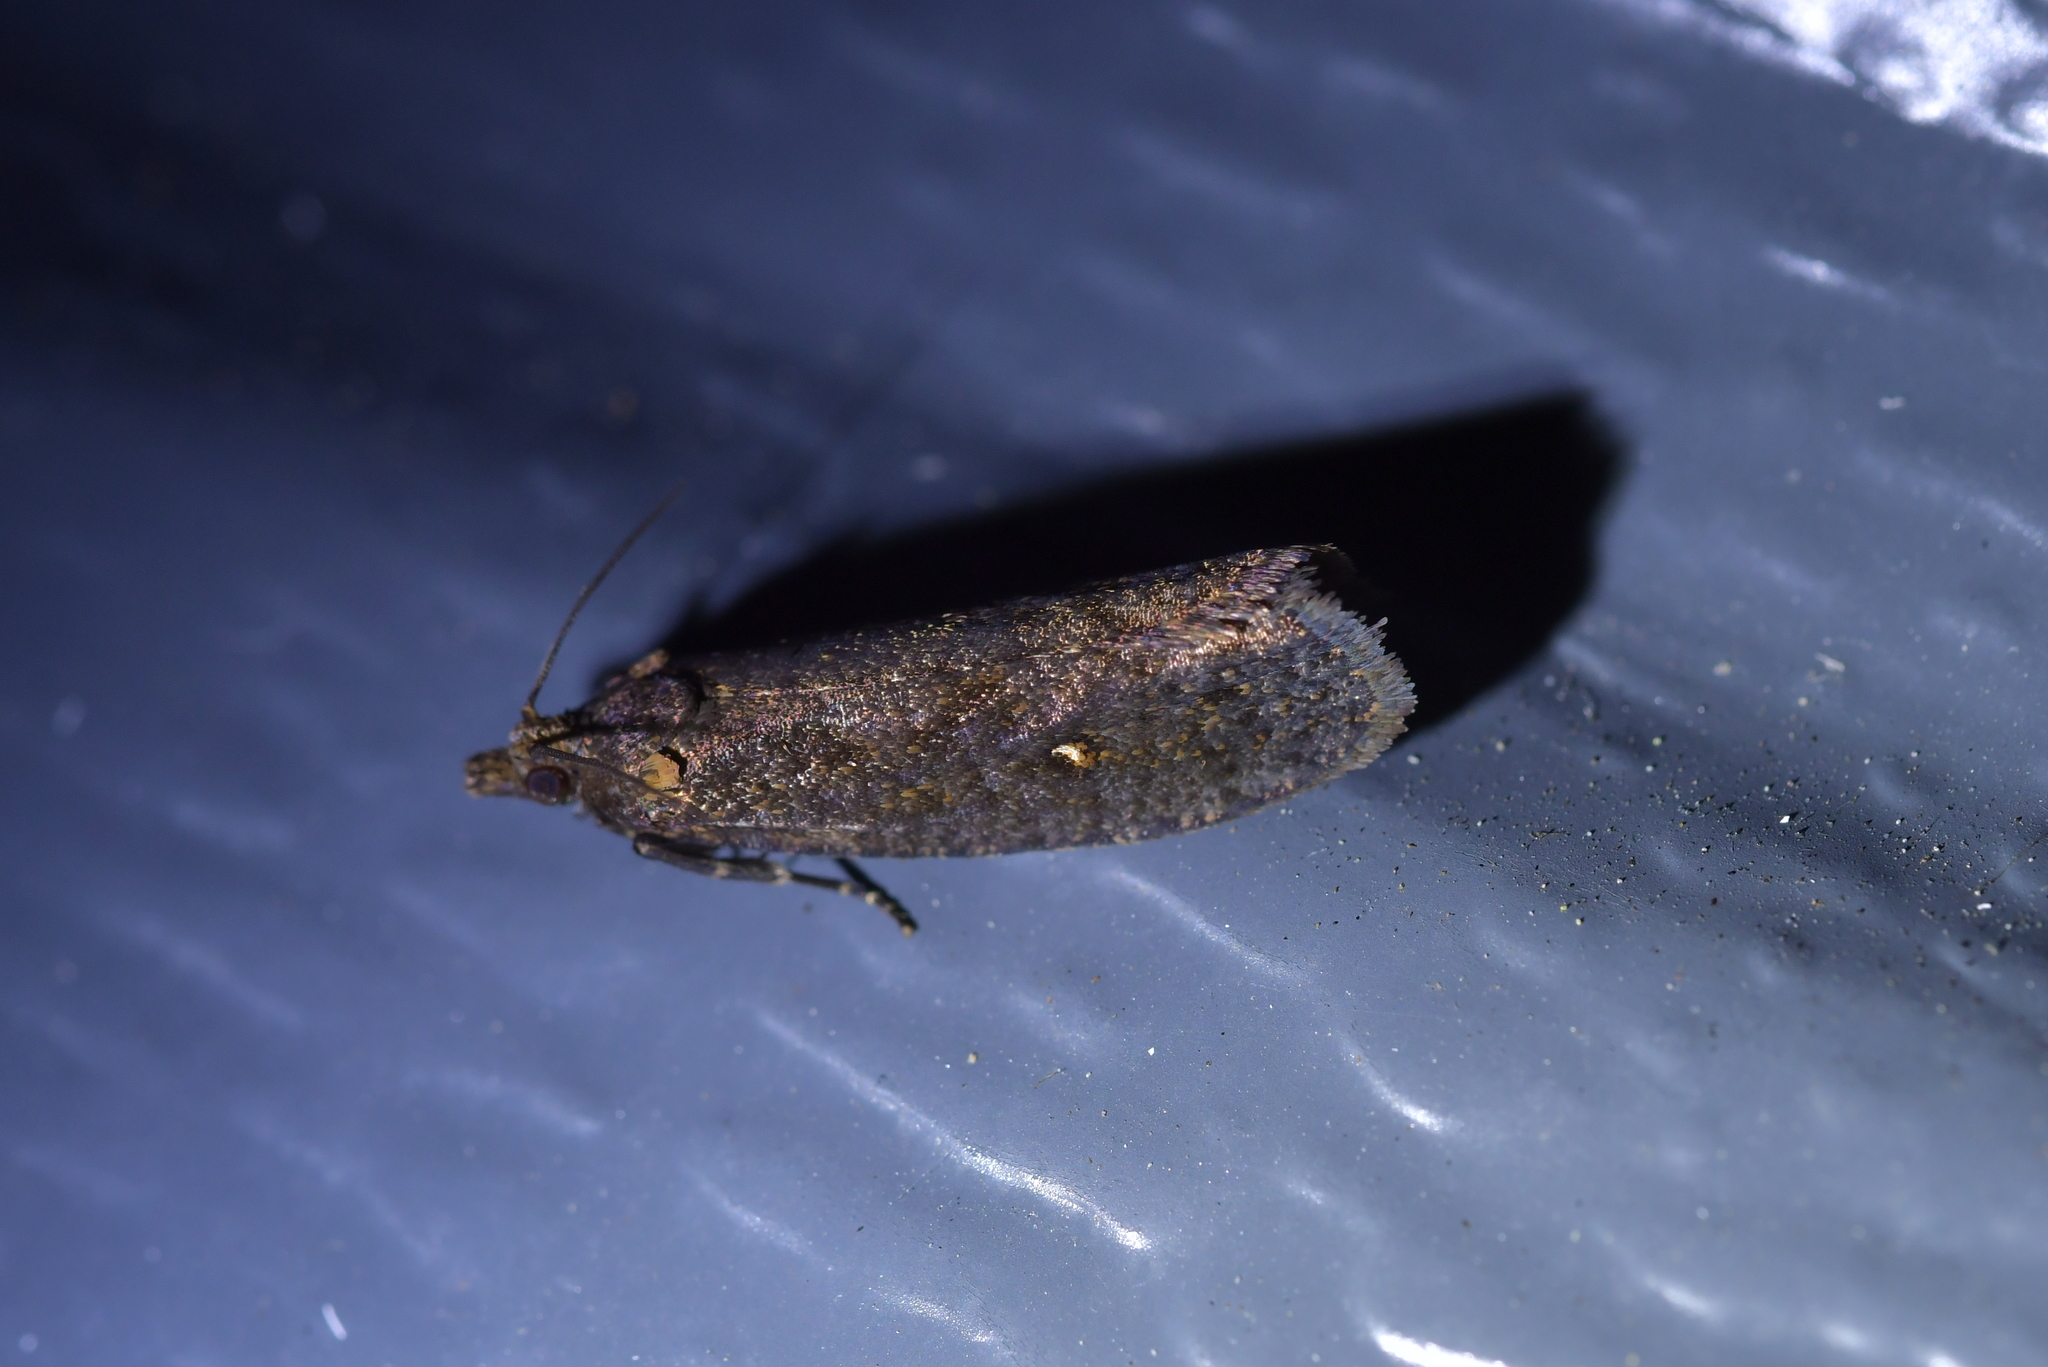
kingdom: Animalia
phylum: Arthropoda
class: Insecta
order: Lepidoptera
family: Tortricidae
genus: Cryptaspasma
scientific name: Cryptaspasma querula
